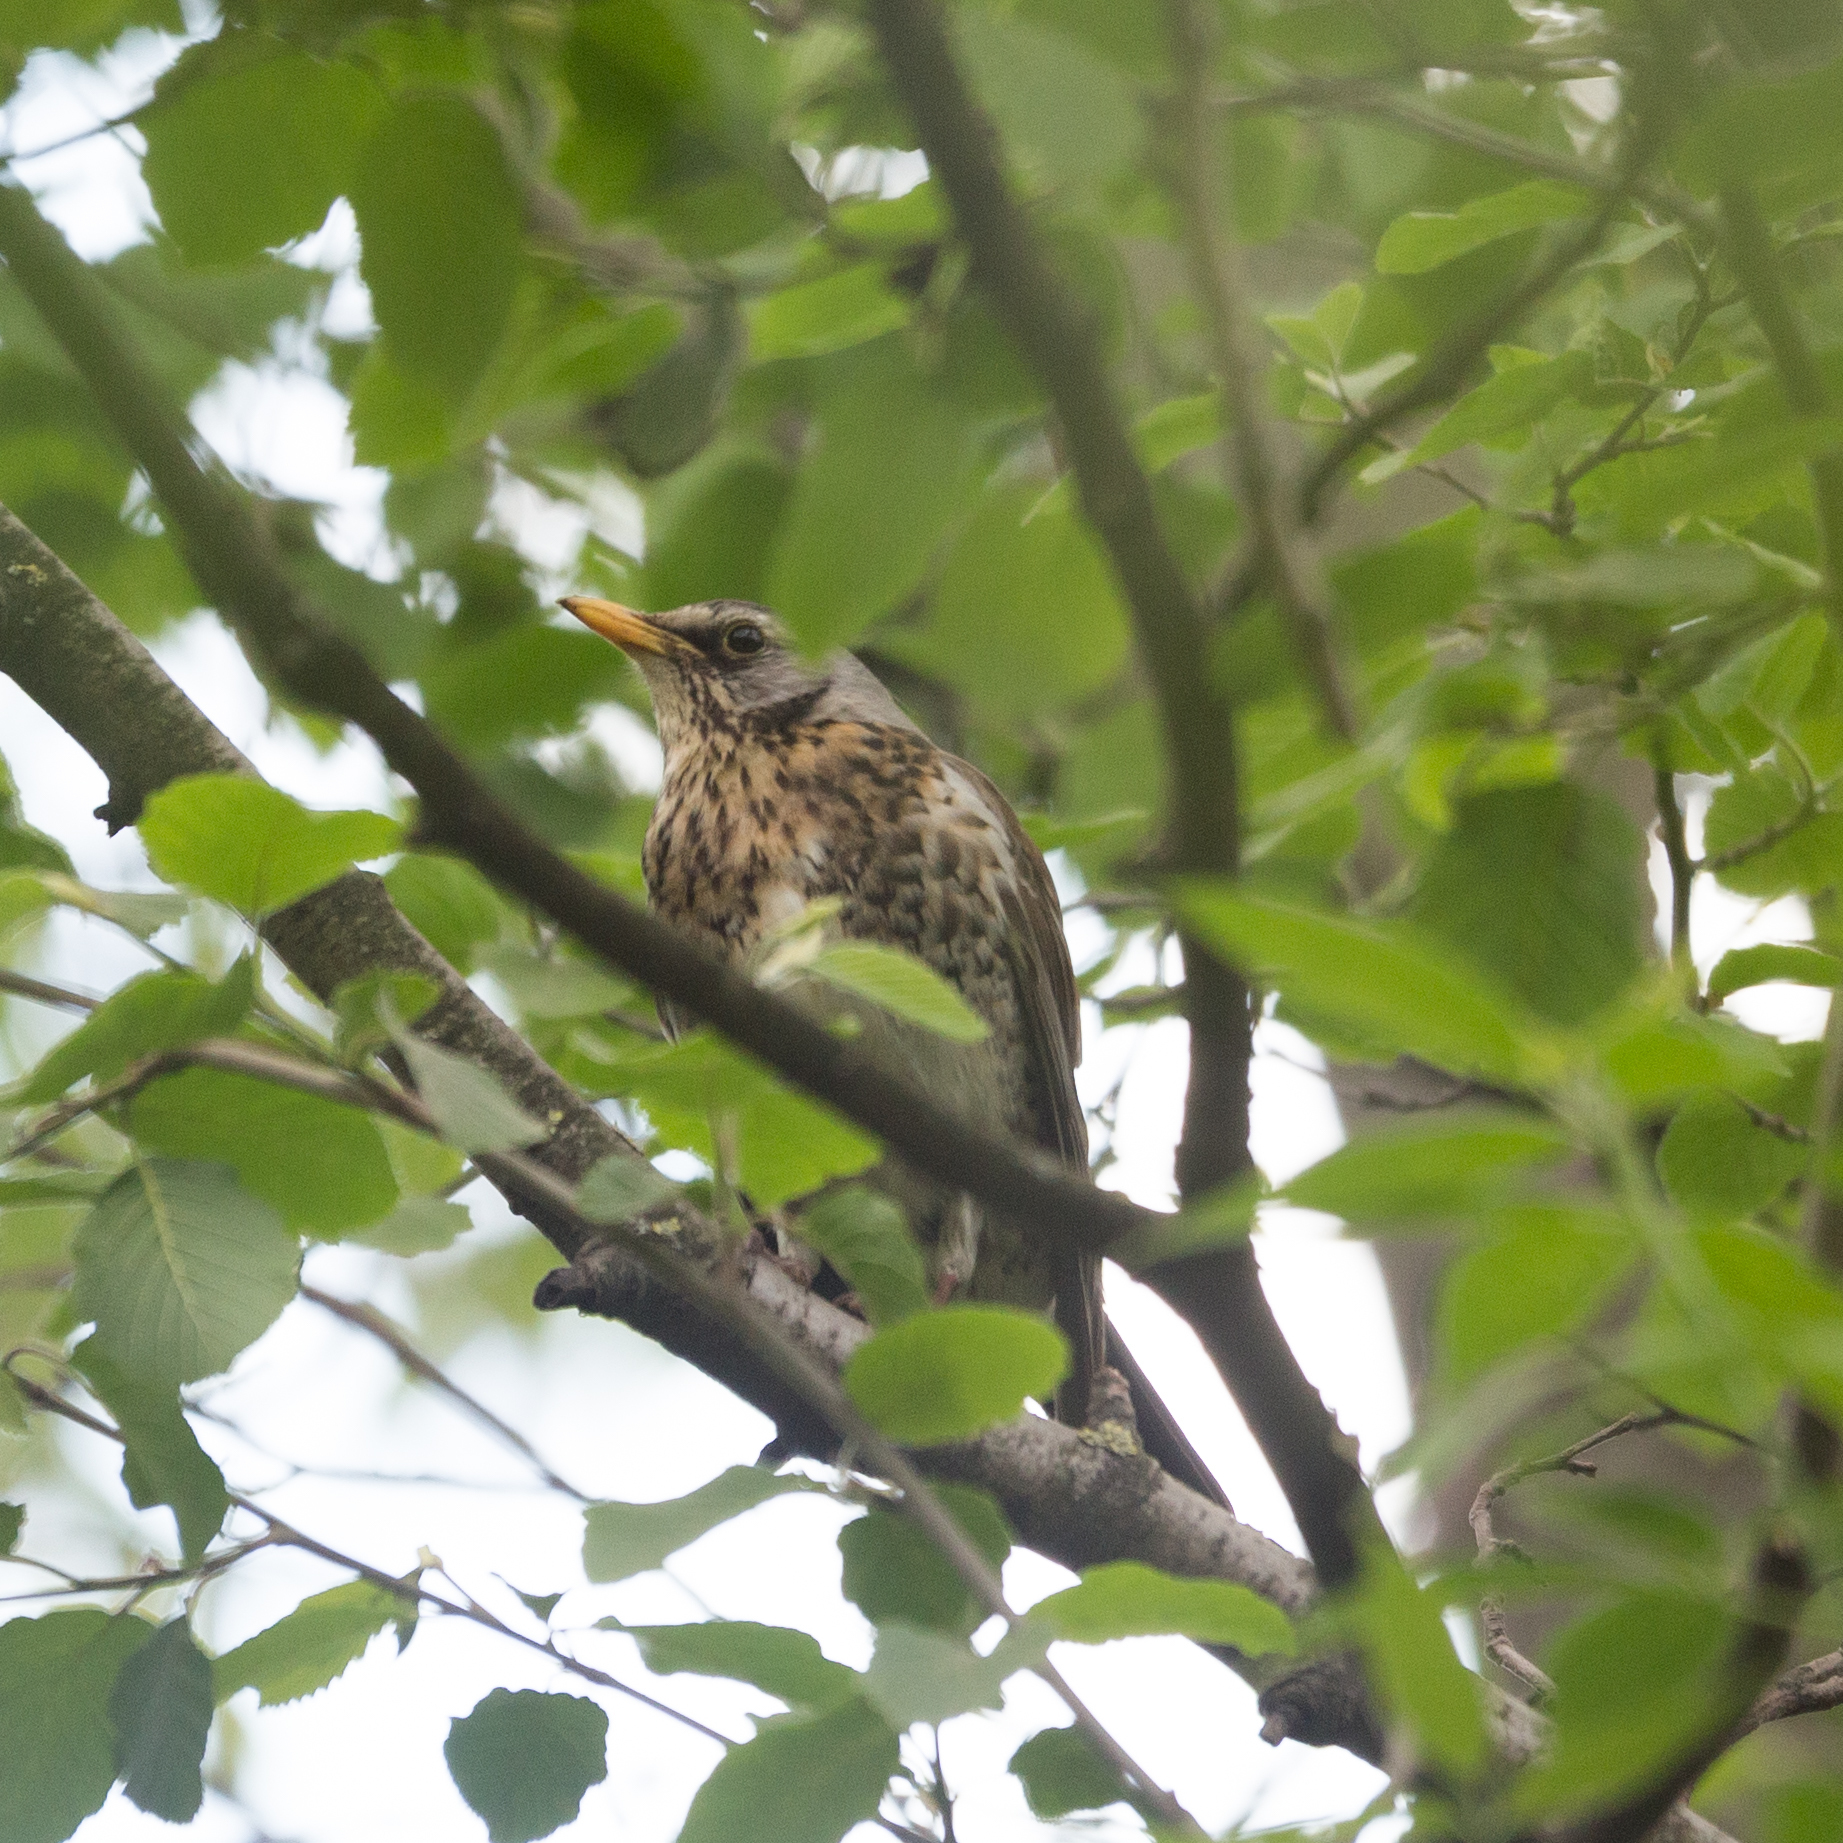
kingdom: Animalia
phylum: Chordata
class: Aves
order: Passeriformes
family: Turdidae
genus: Turdus
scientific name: Turdus pilaris
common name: Fieldfare
